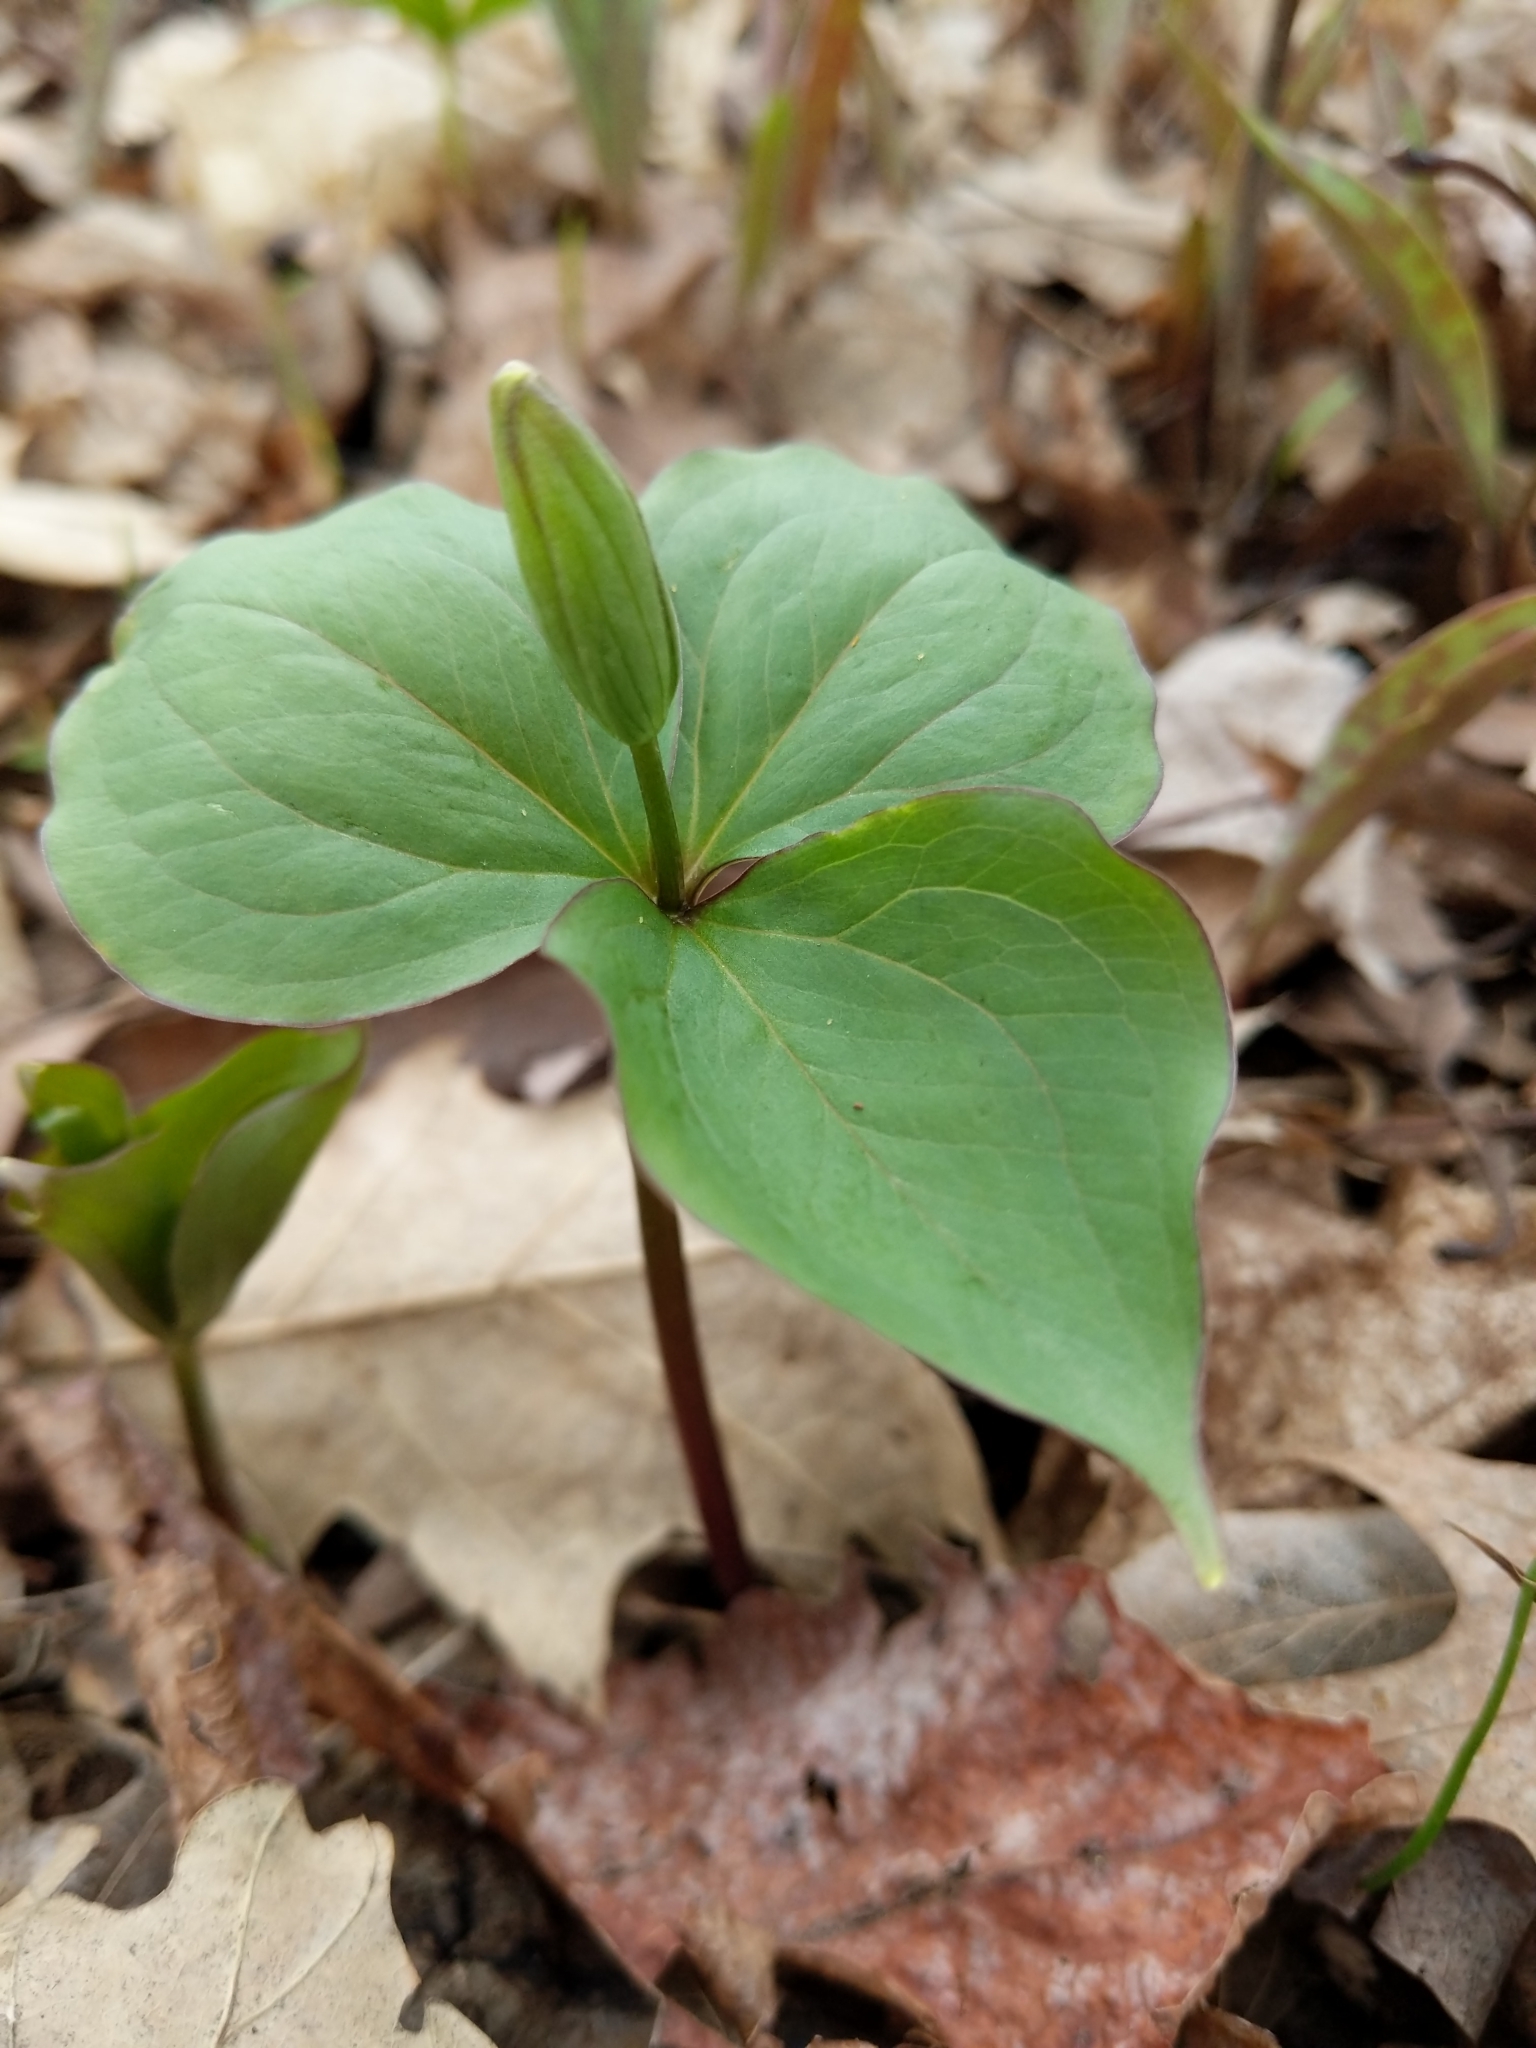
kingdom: Plantae
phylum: Tracheophyta
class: Liliopsida
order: Liliales
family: Melanthiaceae
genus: Trillium
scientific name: Trillium grandiflorum
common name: Great white trillium
